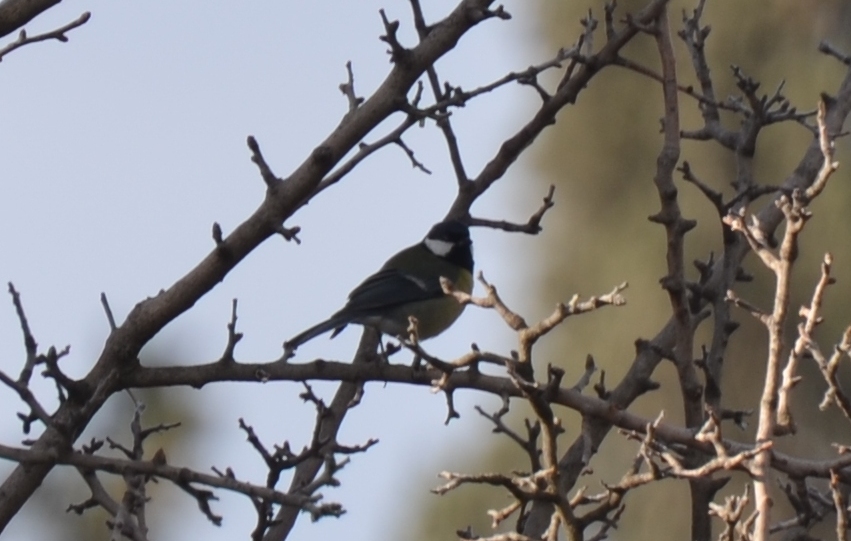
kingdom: Animalia
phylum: Chordata
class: Aves
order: Passeriformes
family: Paridae
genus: Parus
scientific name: Parus major
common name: Great tit
